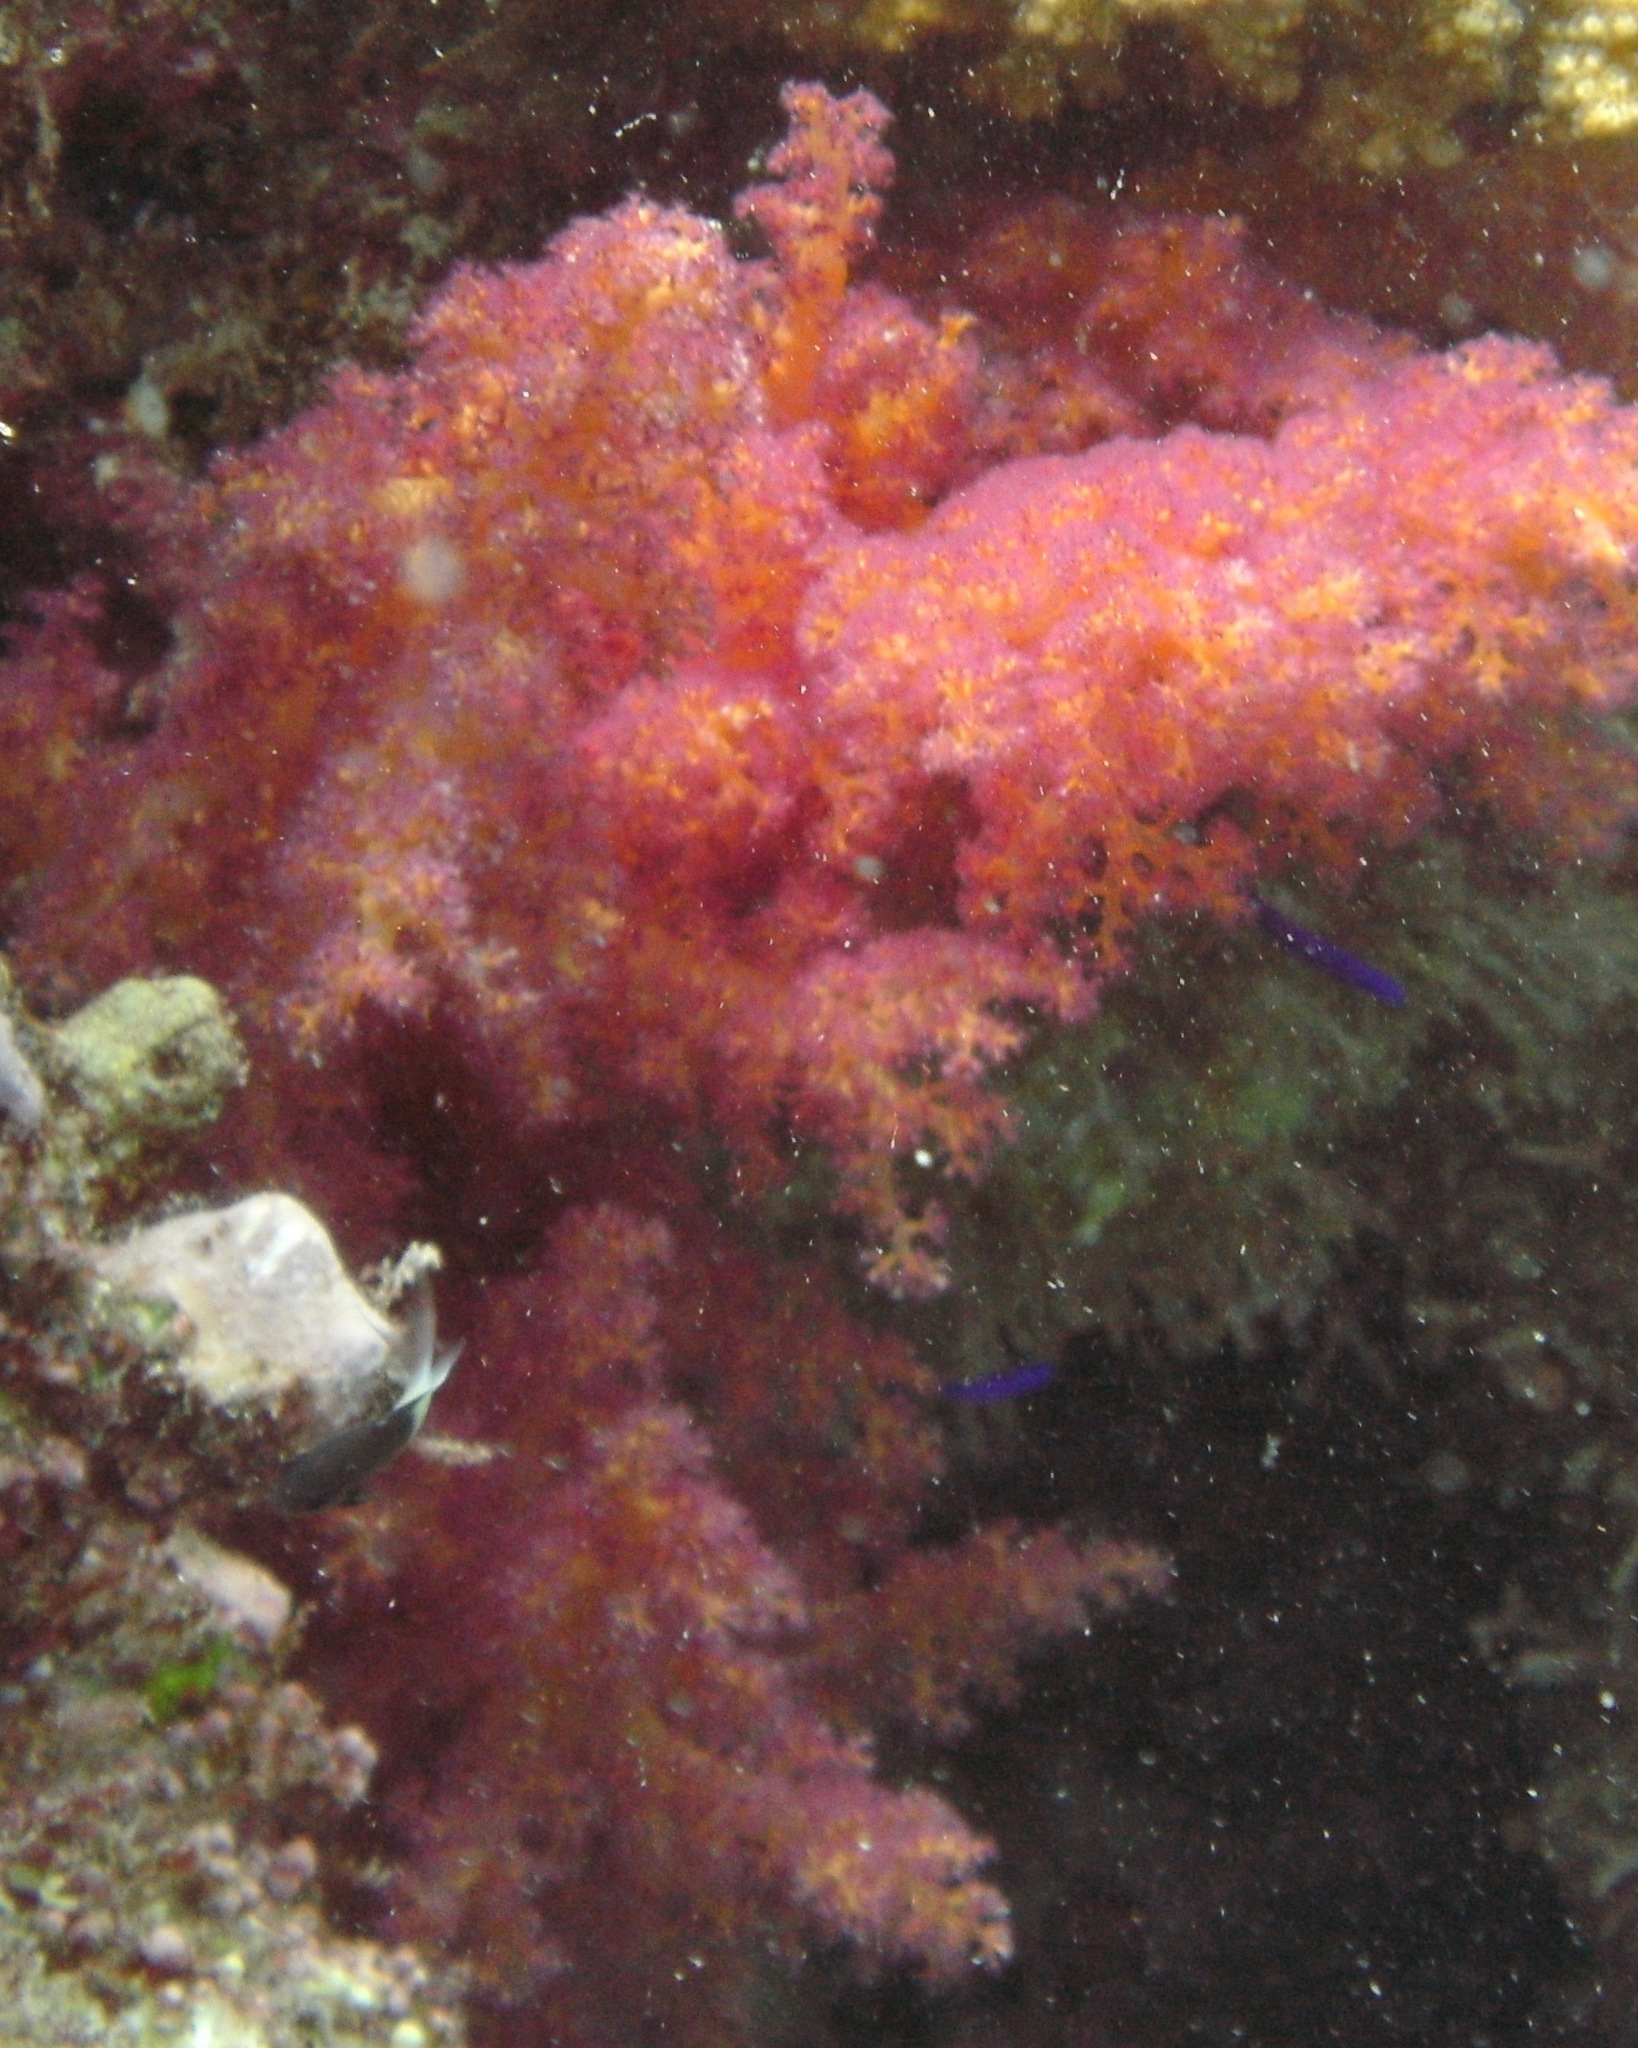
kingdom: Animalia
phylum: Cnidaria
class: Anthozoa
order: Malacalcyonacea
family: Nephtheidae
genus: Dendronephthya
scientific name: Dendronephthya hemprichi
